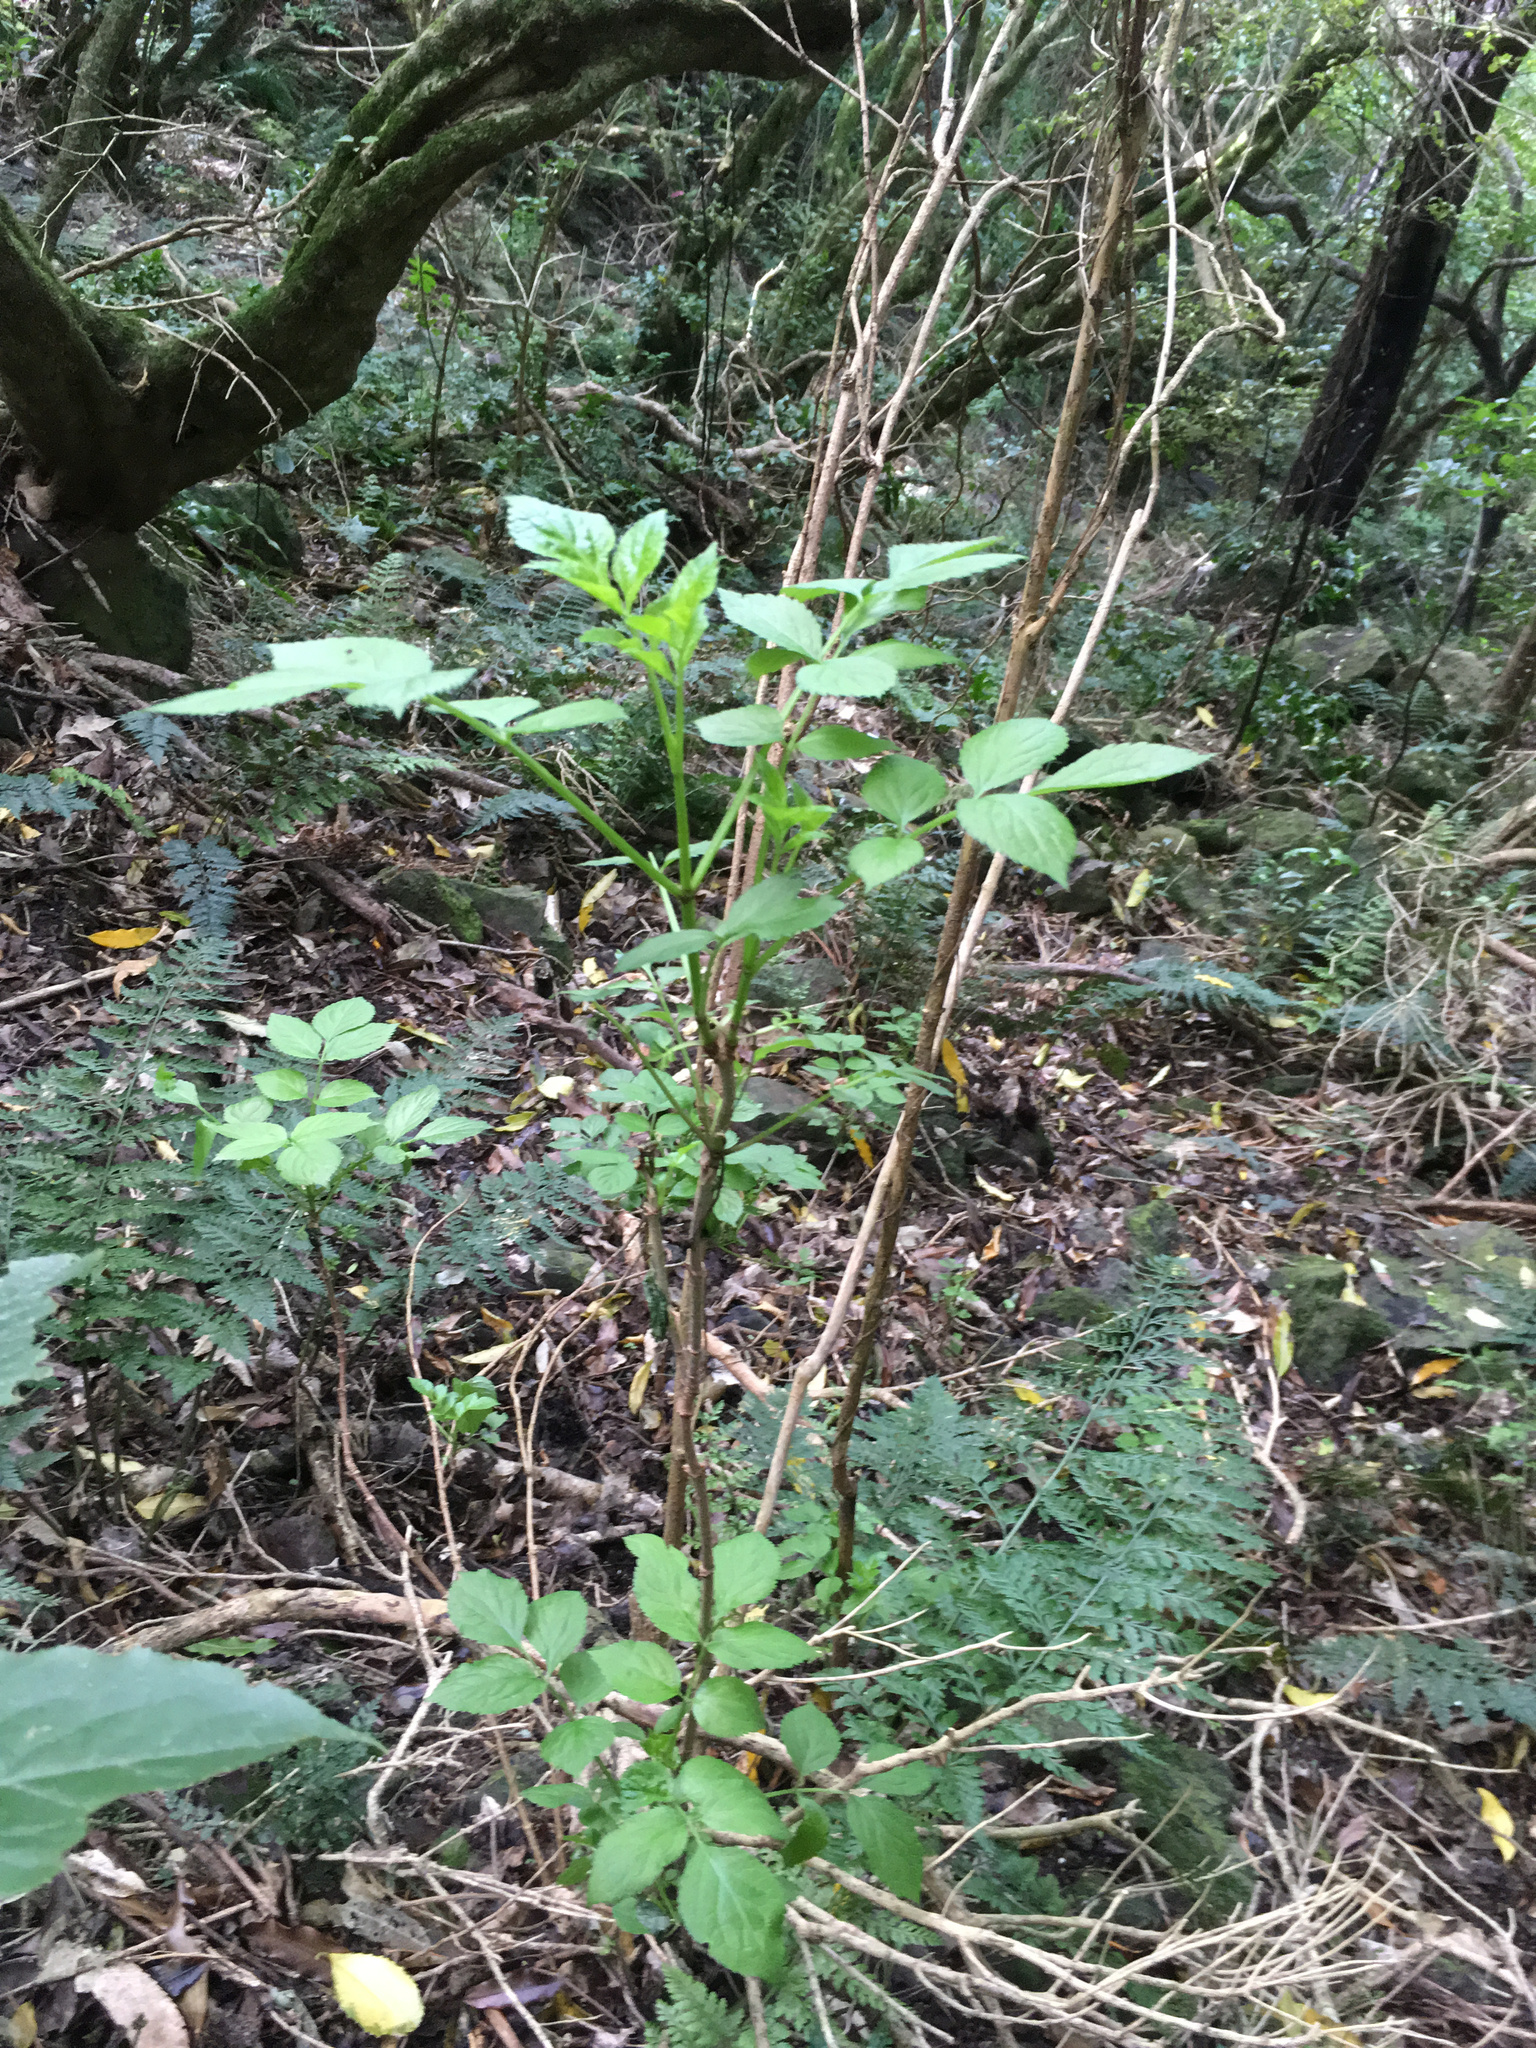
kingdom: Plantae
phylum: Tracheophyta
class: Magnoliopsida
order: Dipsacales
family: Viburnaceae
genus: Sambucus
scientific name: Sambucus nigra
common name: Elder
